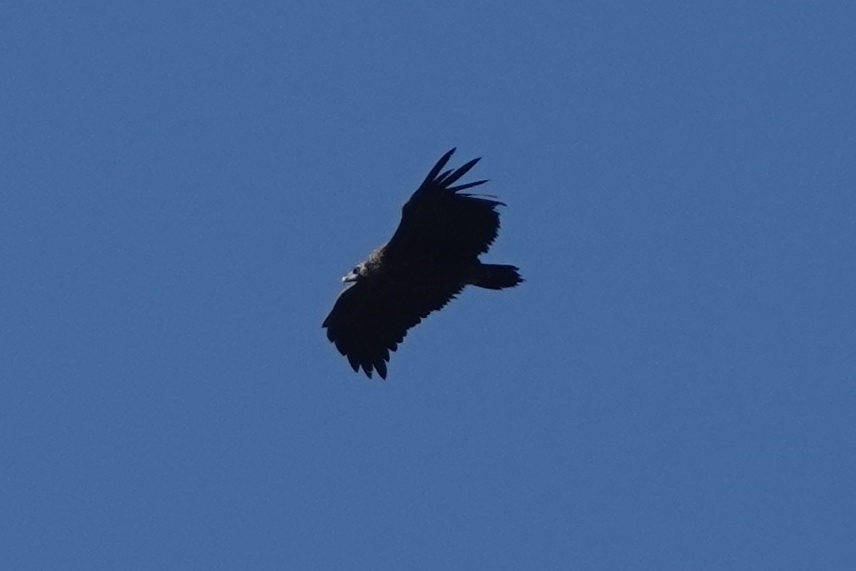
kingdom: Animalia
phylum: Chordata
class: Aves
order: Accipitriformes
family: Accipitridae
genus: Aegypius
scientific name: Aegypius monachus
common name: Cinereous vulture
